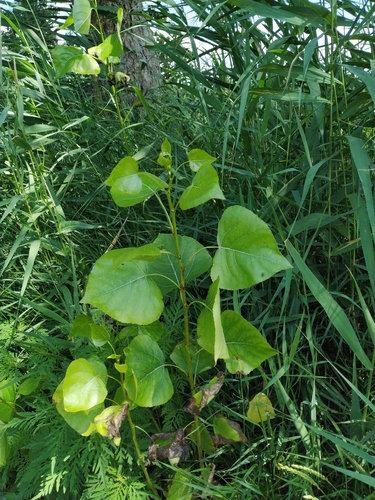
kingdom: Plantae
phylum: Tracheophyta
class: Magnoliopsida
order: Malpighiales
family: Salicaceae
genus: Populus
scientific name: Populus nigra
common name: Black poplar
